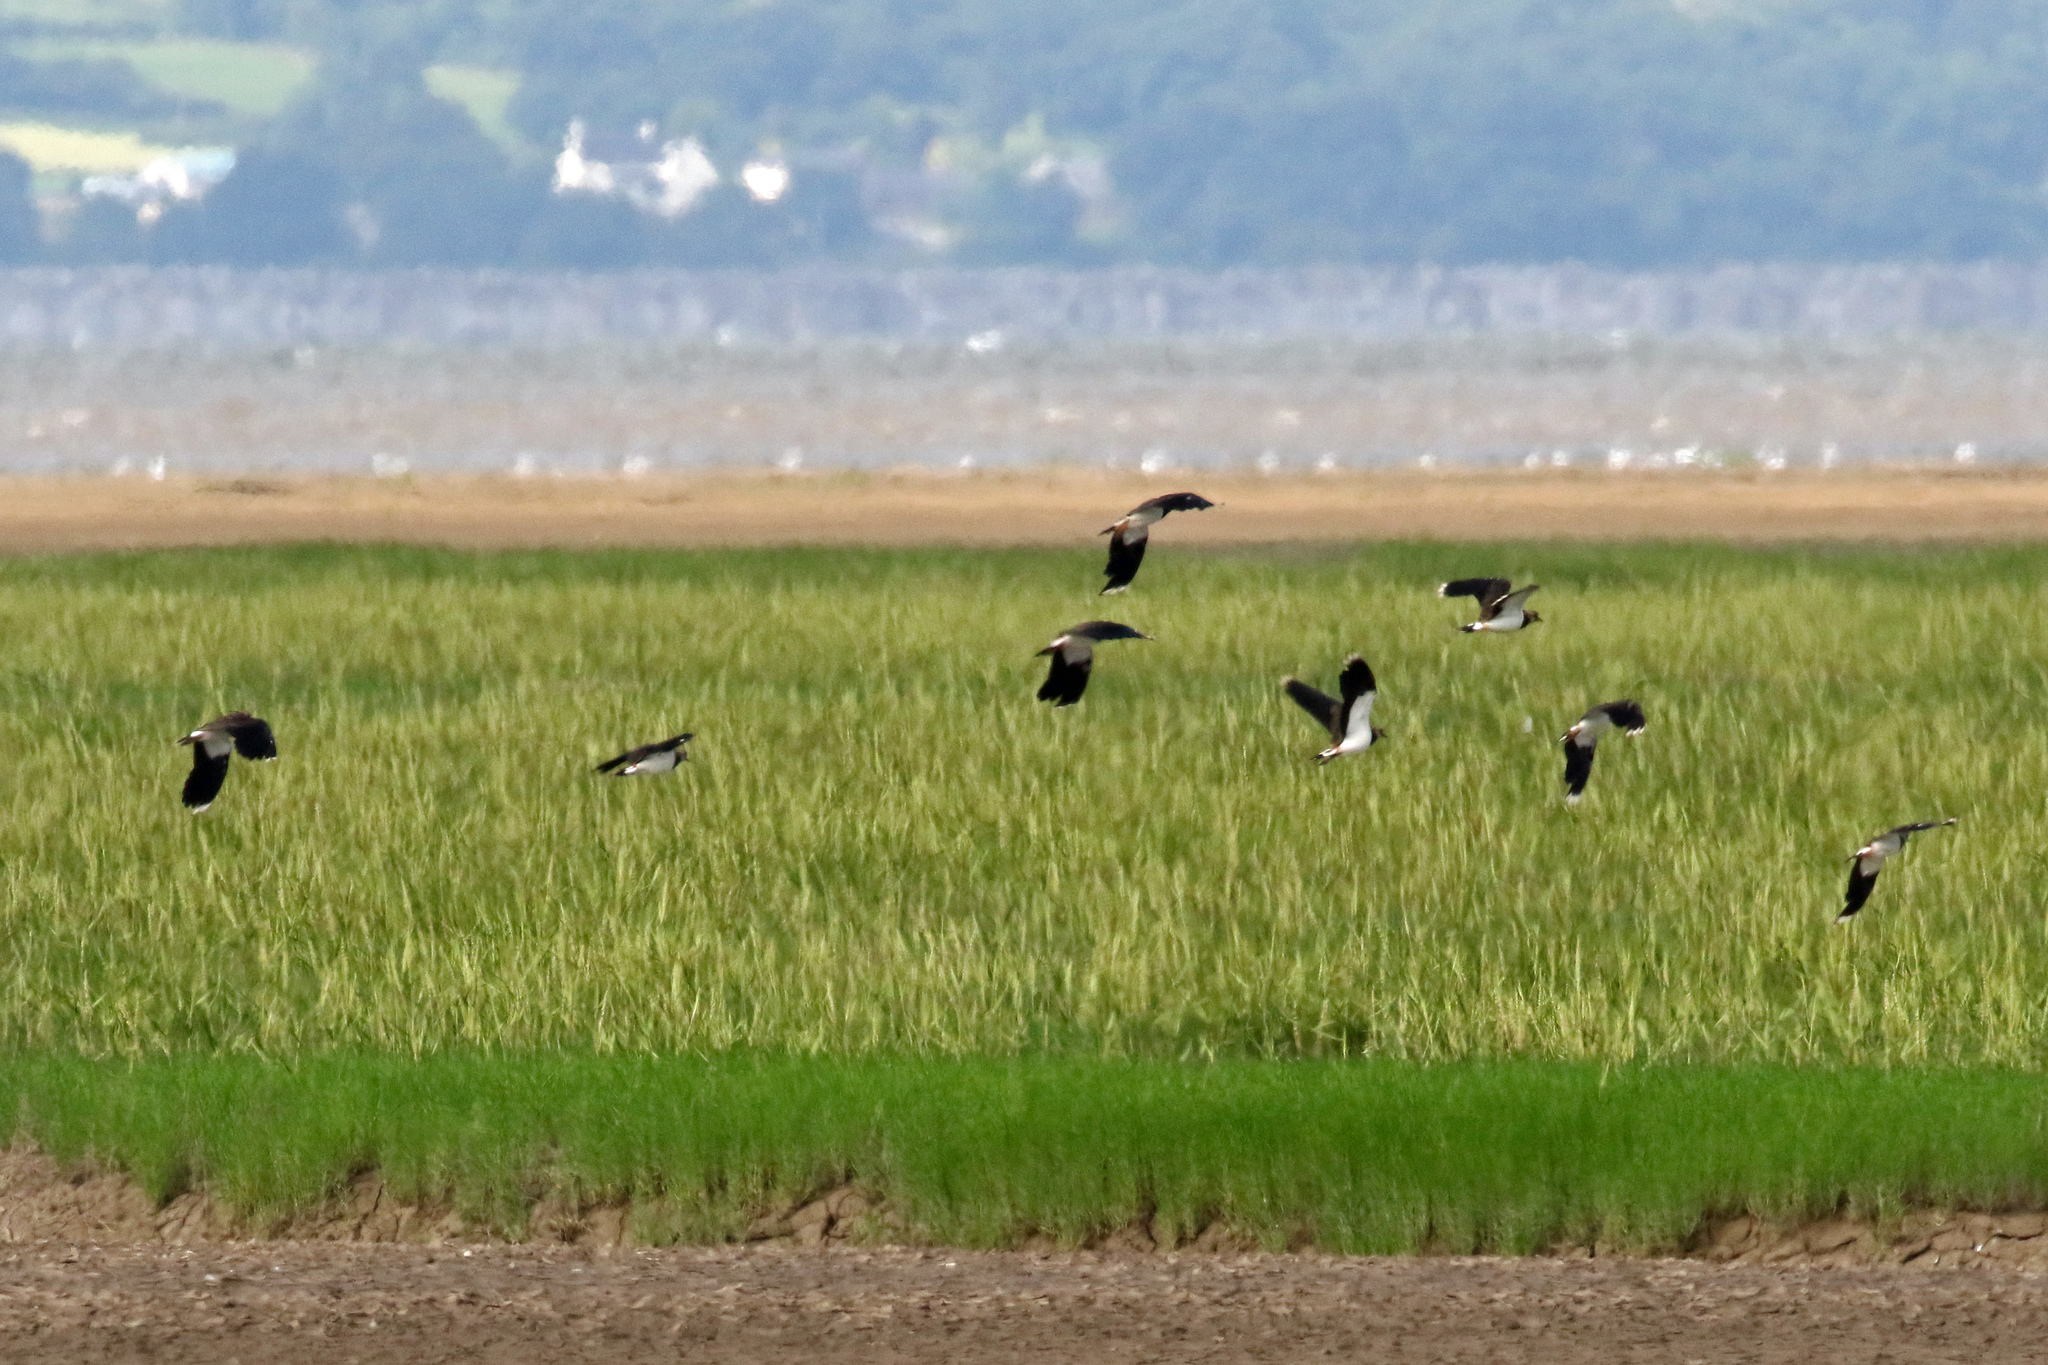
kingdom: Animalia
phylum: Chordata
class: Aves
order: Charadriiformes
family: Charadriidae
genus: Vanellus
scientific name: Vanellus vanellus
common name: Northern lapwing
